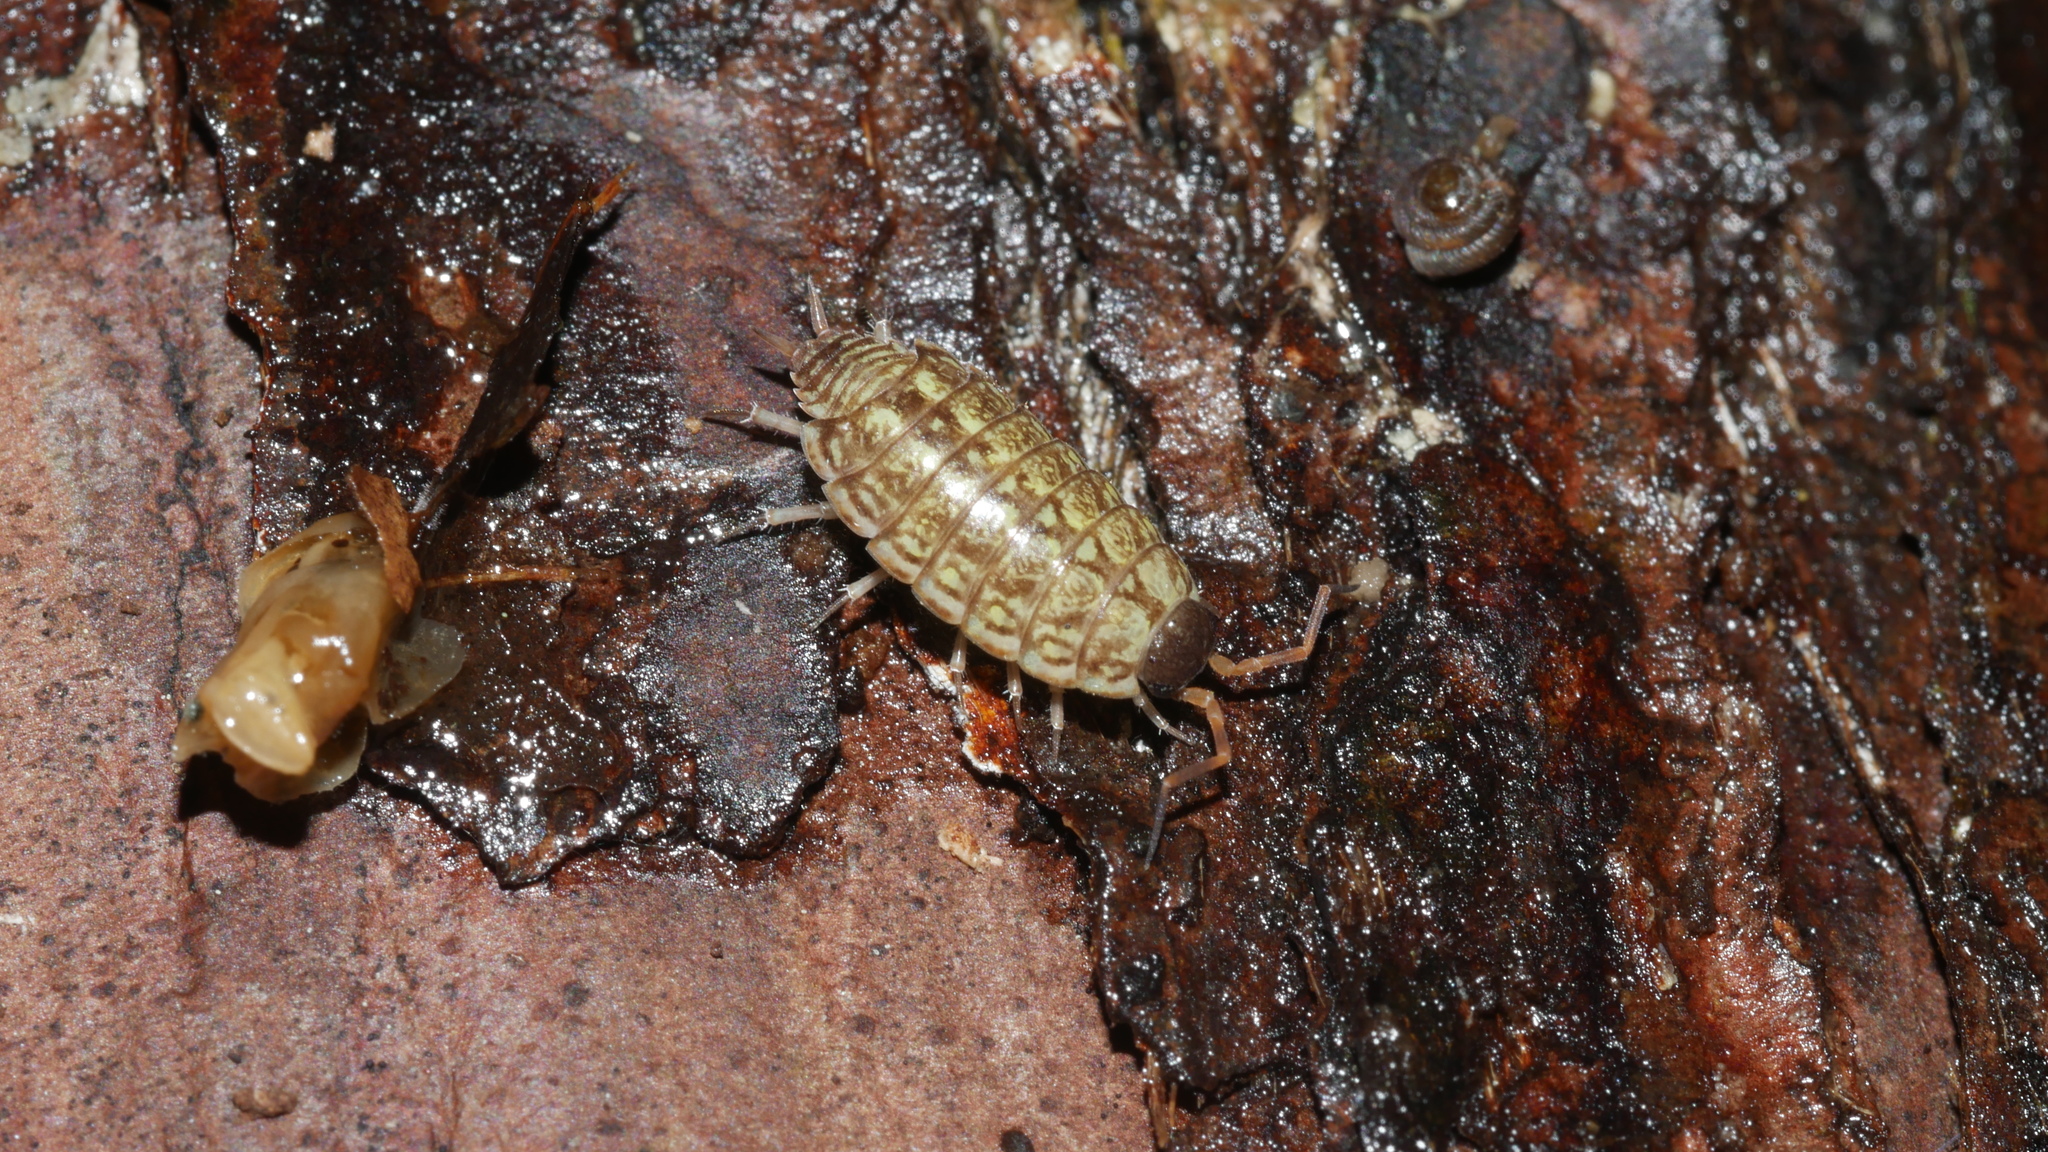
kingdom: Animalia
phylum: Arthropoda
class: Malacostraca
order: Isopoda
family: Philosciidae
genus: Philoscia
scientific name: Philoscia muscorum
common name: Common striped woodlouse
